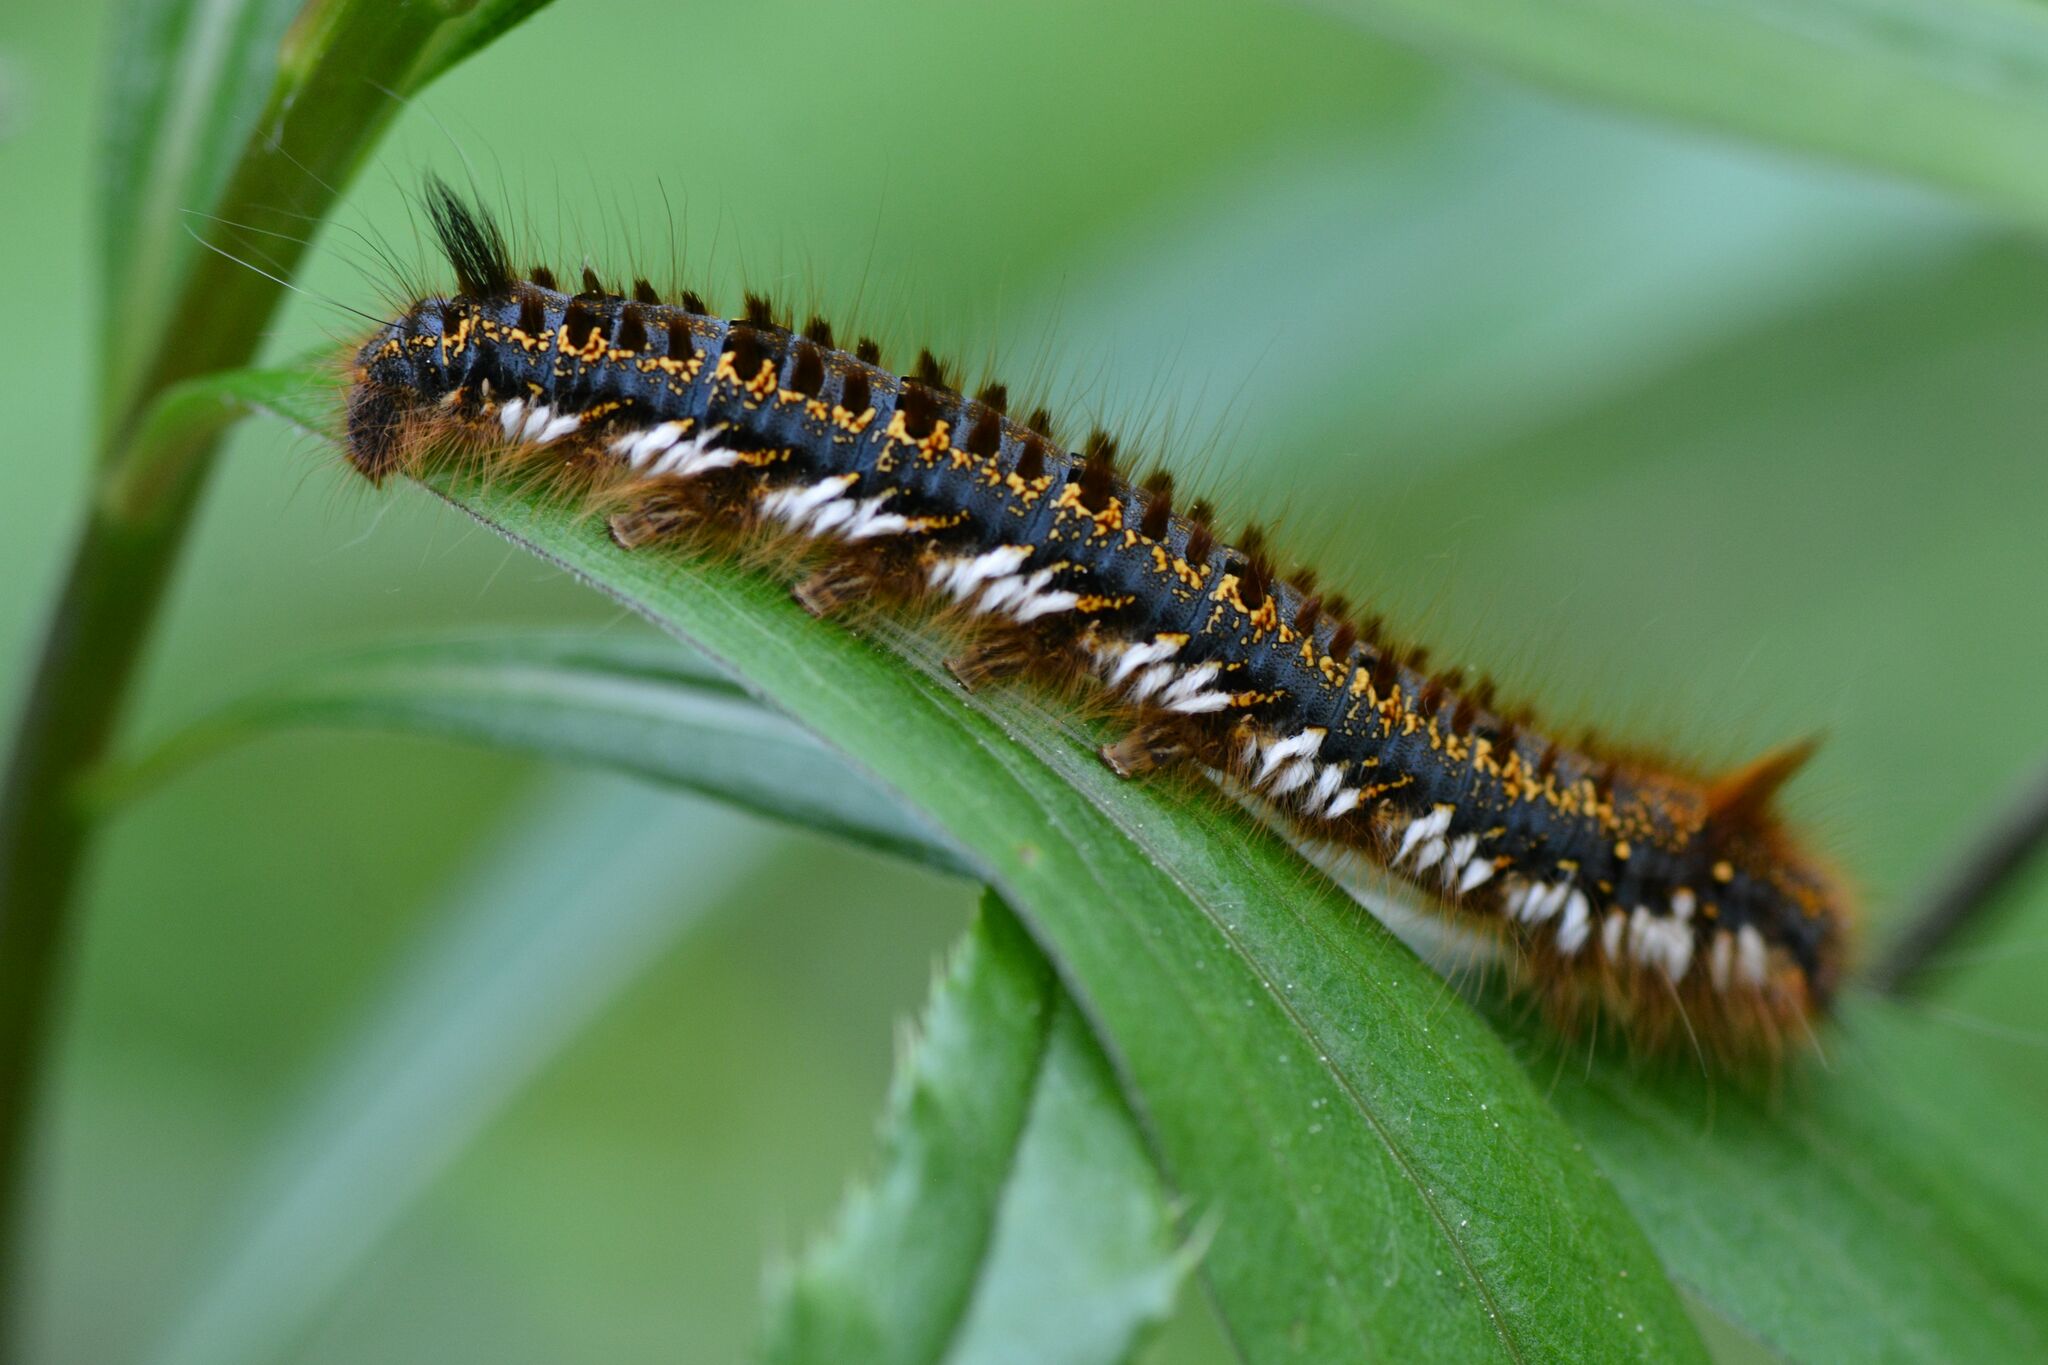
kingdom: Animalia
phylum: Arthropoda
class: Insecta
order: Lepidoptera
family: Lasiocampidae
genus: Euthrix
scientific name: Euthrix potatoria
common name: Drinker
